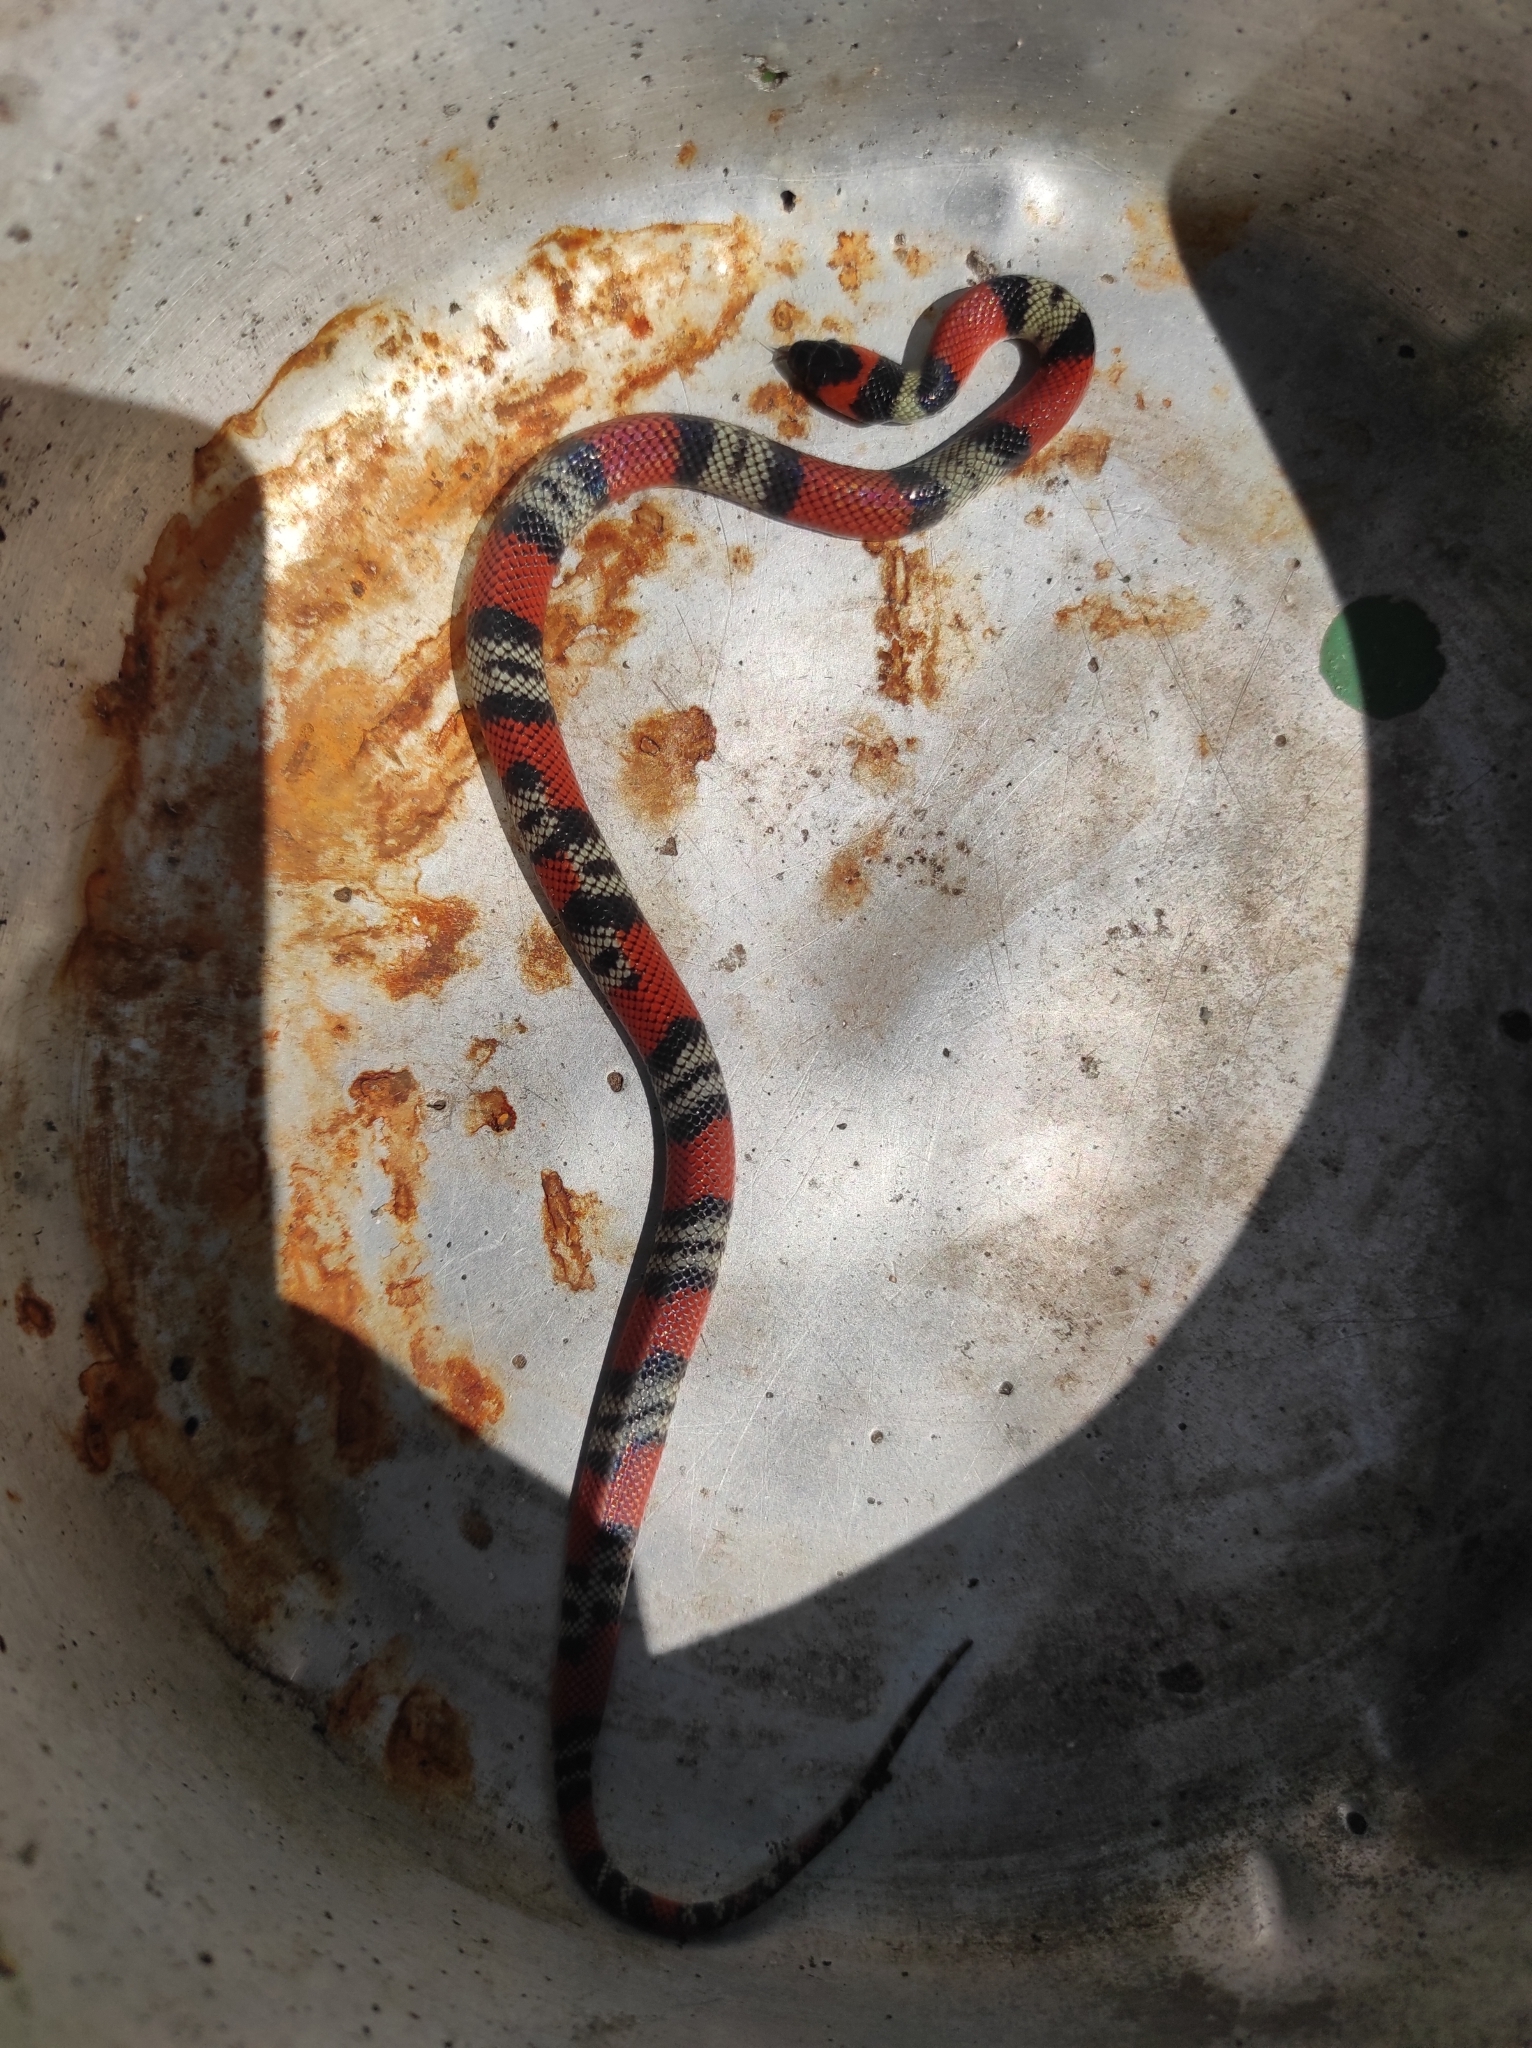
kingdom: Animalia
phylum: Chordata
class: Squamata
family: Colubridae
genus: Oxyrhopus
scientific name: Oxyrhopus guibei
